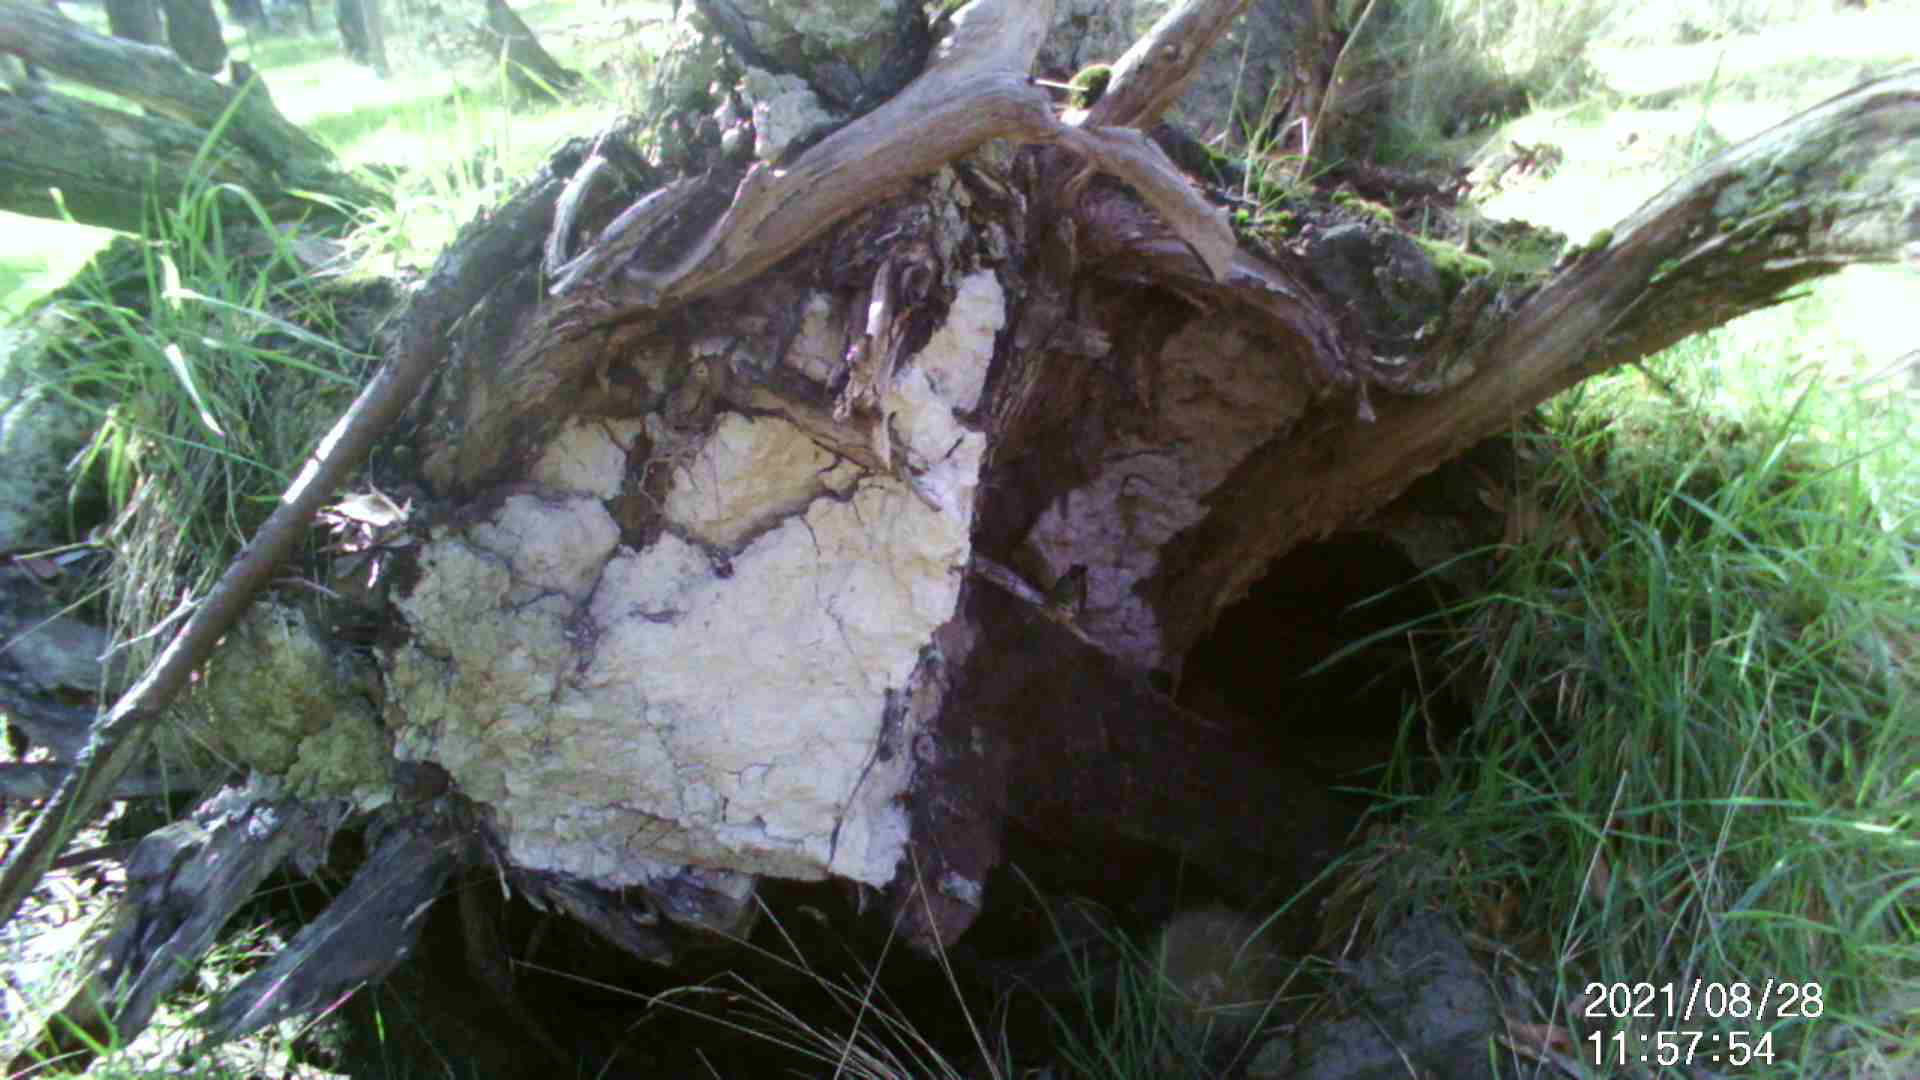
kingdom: Animalia
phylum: Chordata
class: Aves
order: Passeriformes
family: Pardalotidae
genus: Pardalotus
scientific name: Pardalotus punctatus
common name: Spotted pardalote
